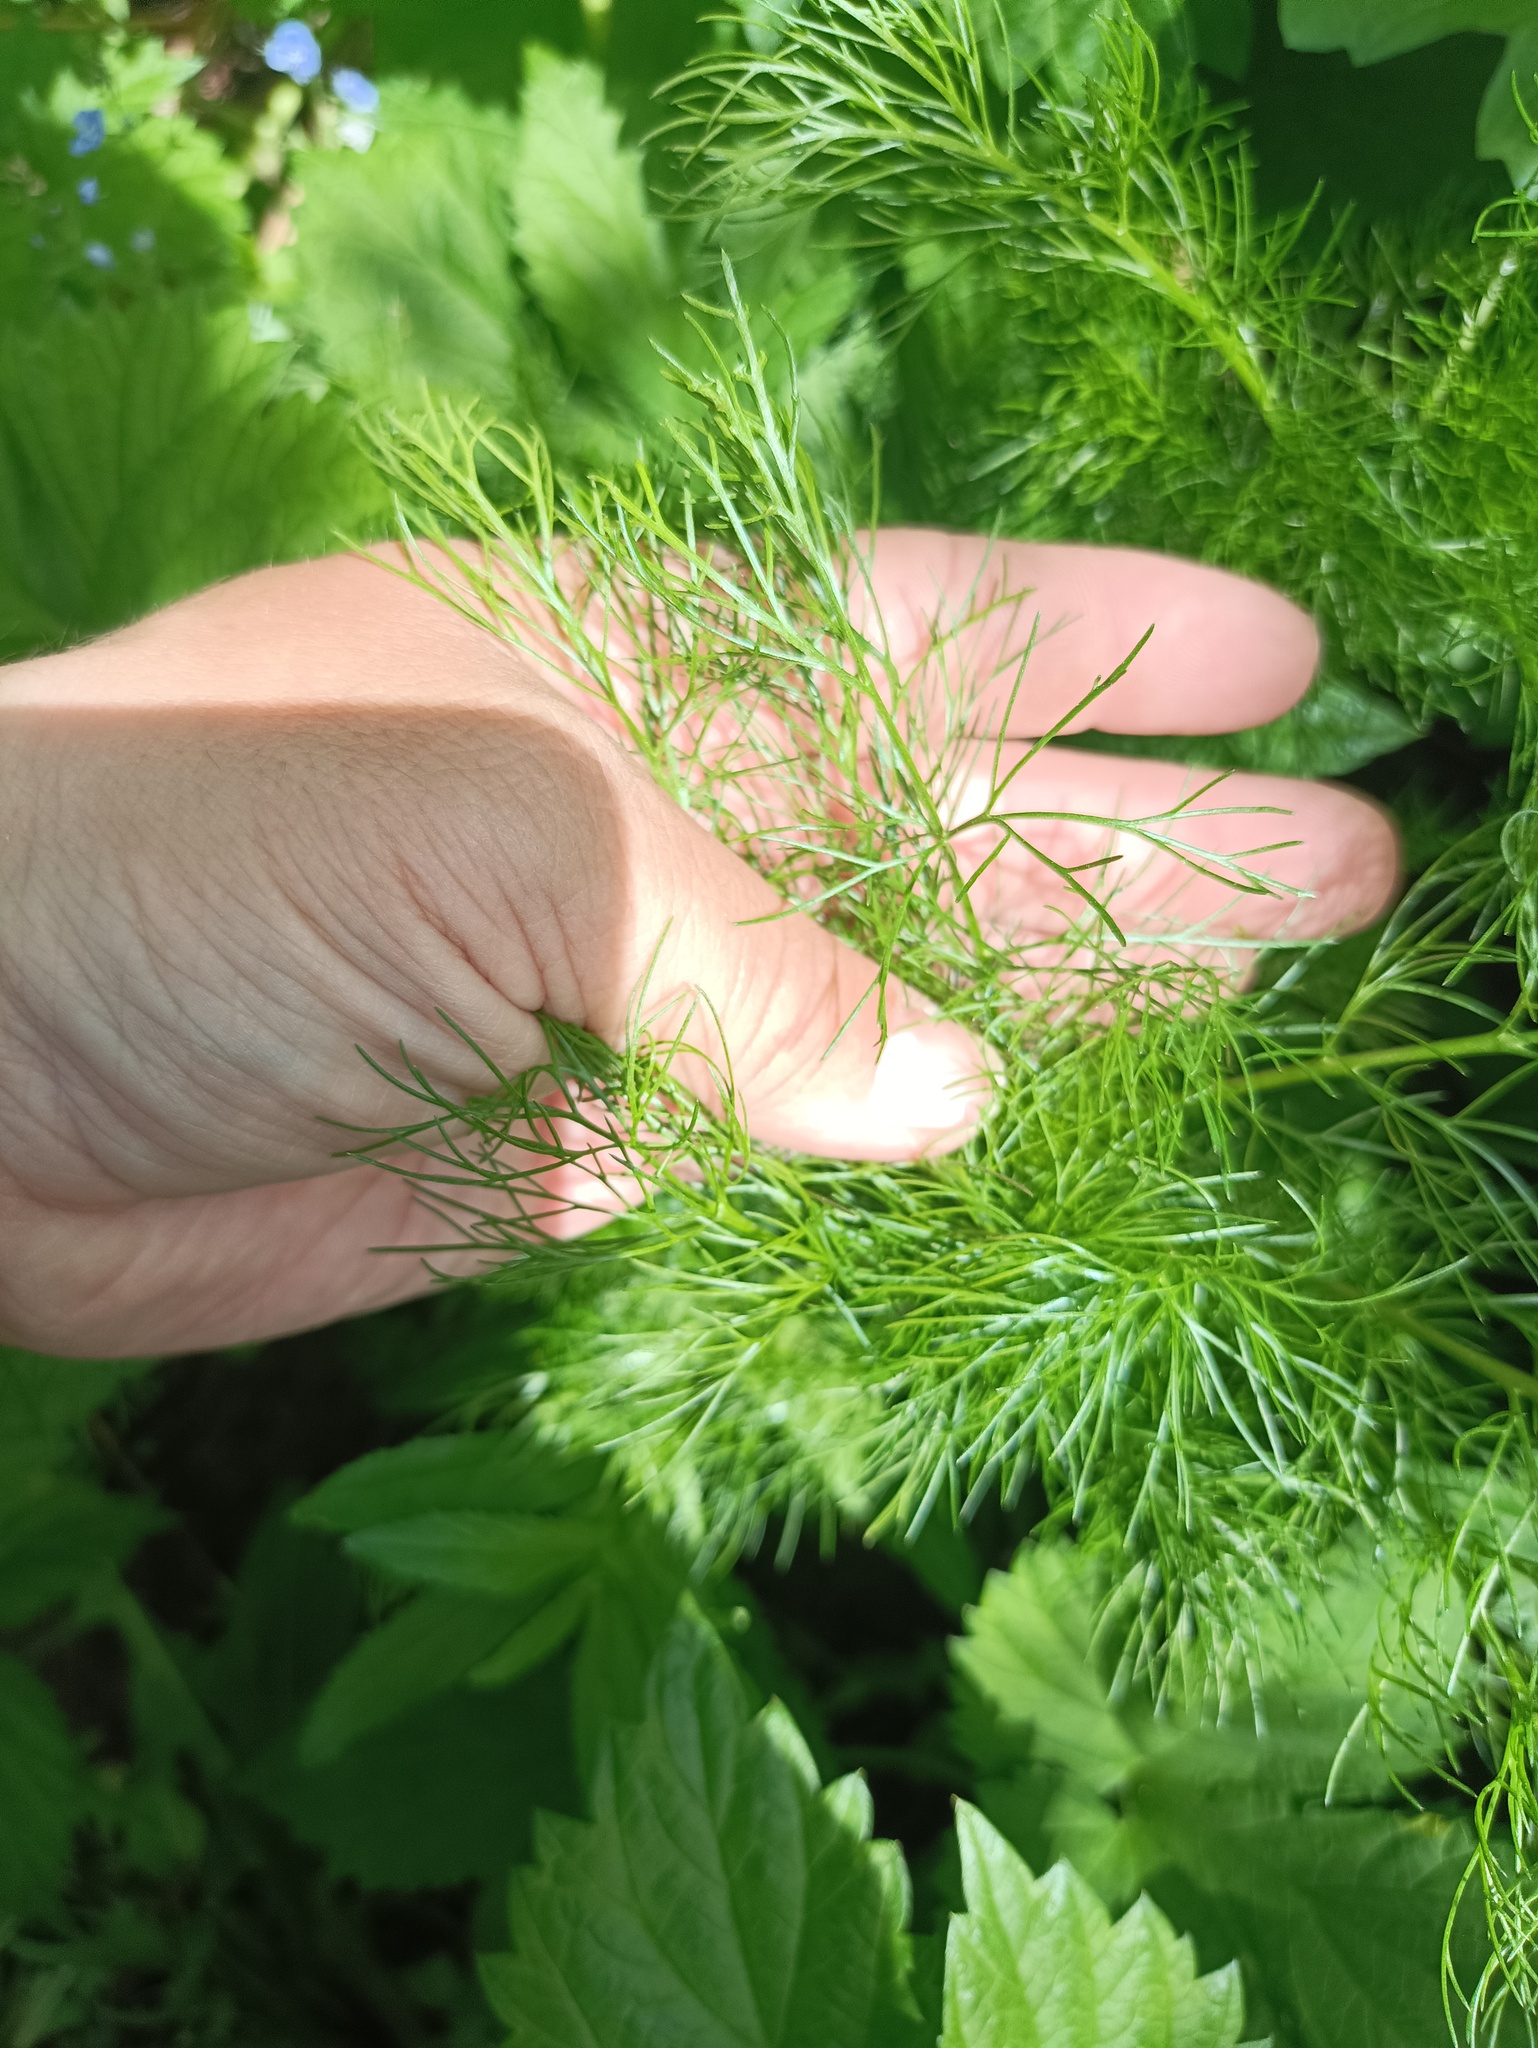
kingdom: Plantae
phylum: Tracheophyta
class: Magnoliopsida
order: Asterales
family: Asteraceae
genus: Tripleurospermum
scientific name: Tripleurospermum inodorum
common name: Scentless mayweed
